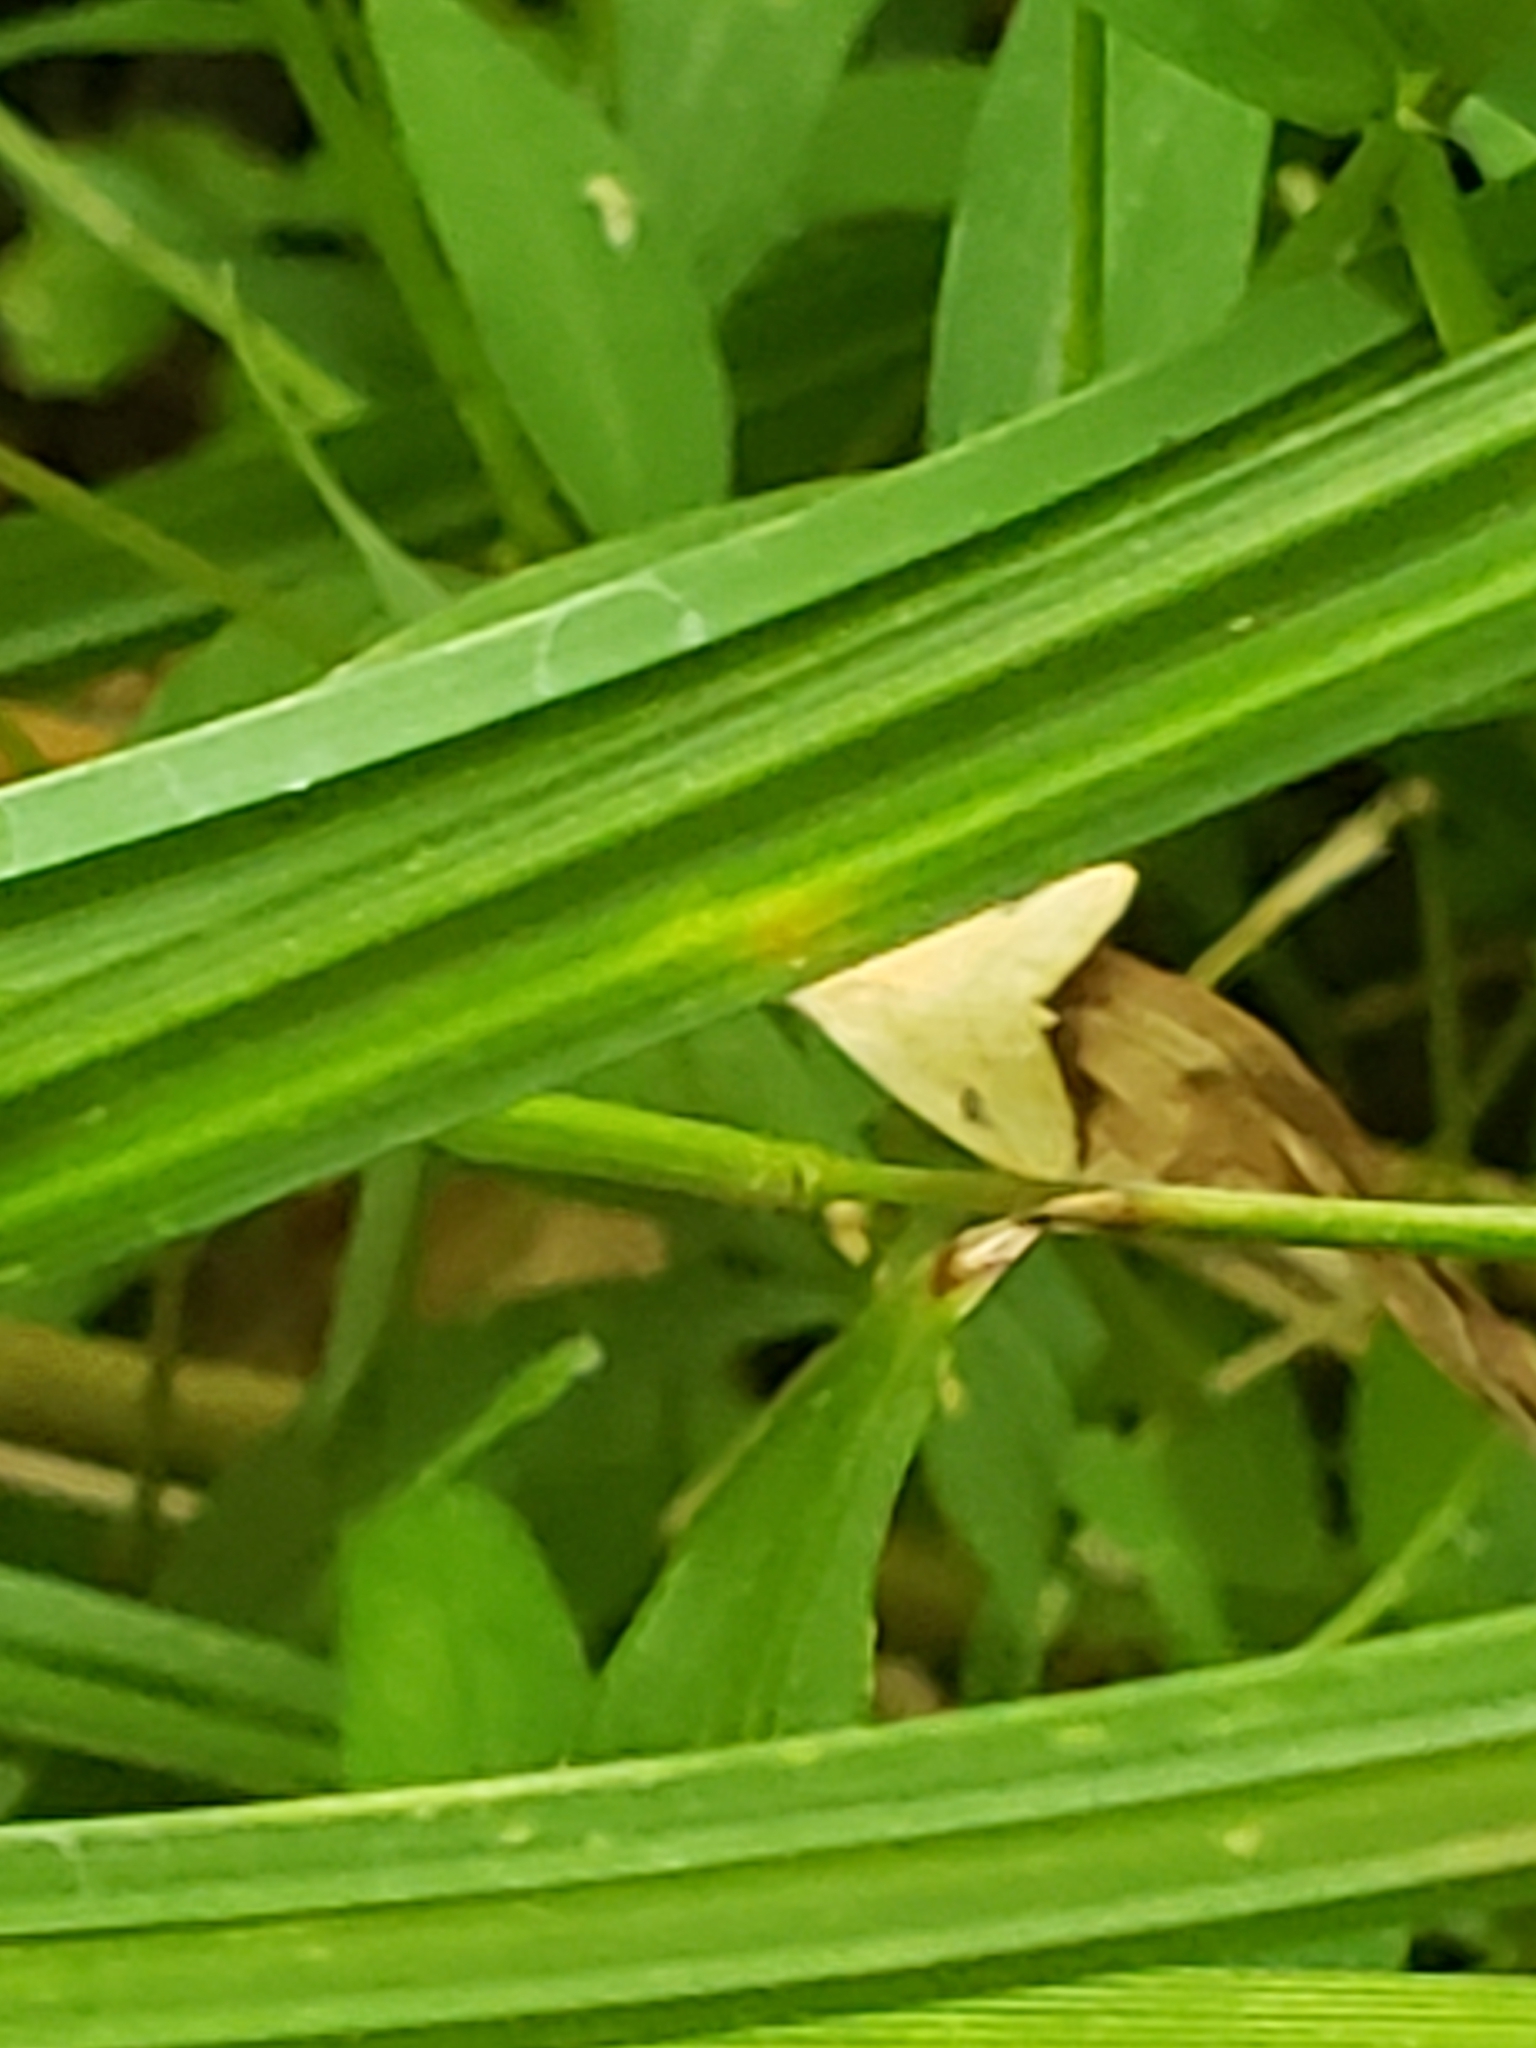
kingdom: Animalia
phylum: Arthropoda
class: Insecta
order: Lepidoptera
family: Erebidae
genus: Rivula
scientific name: Rivula propinqualis
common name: Spotted grass moth
